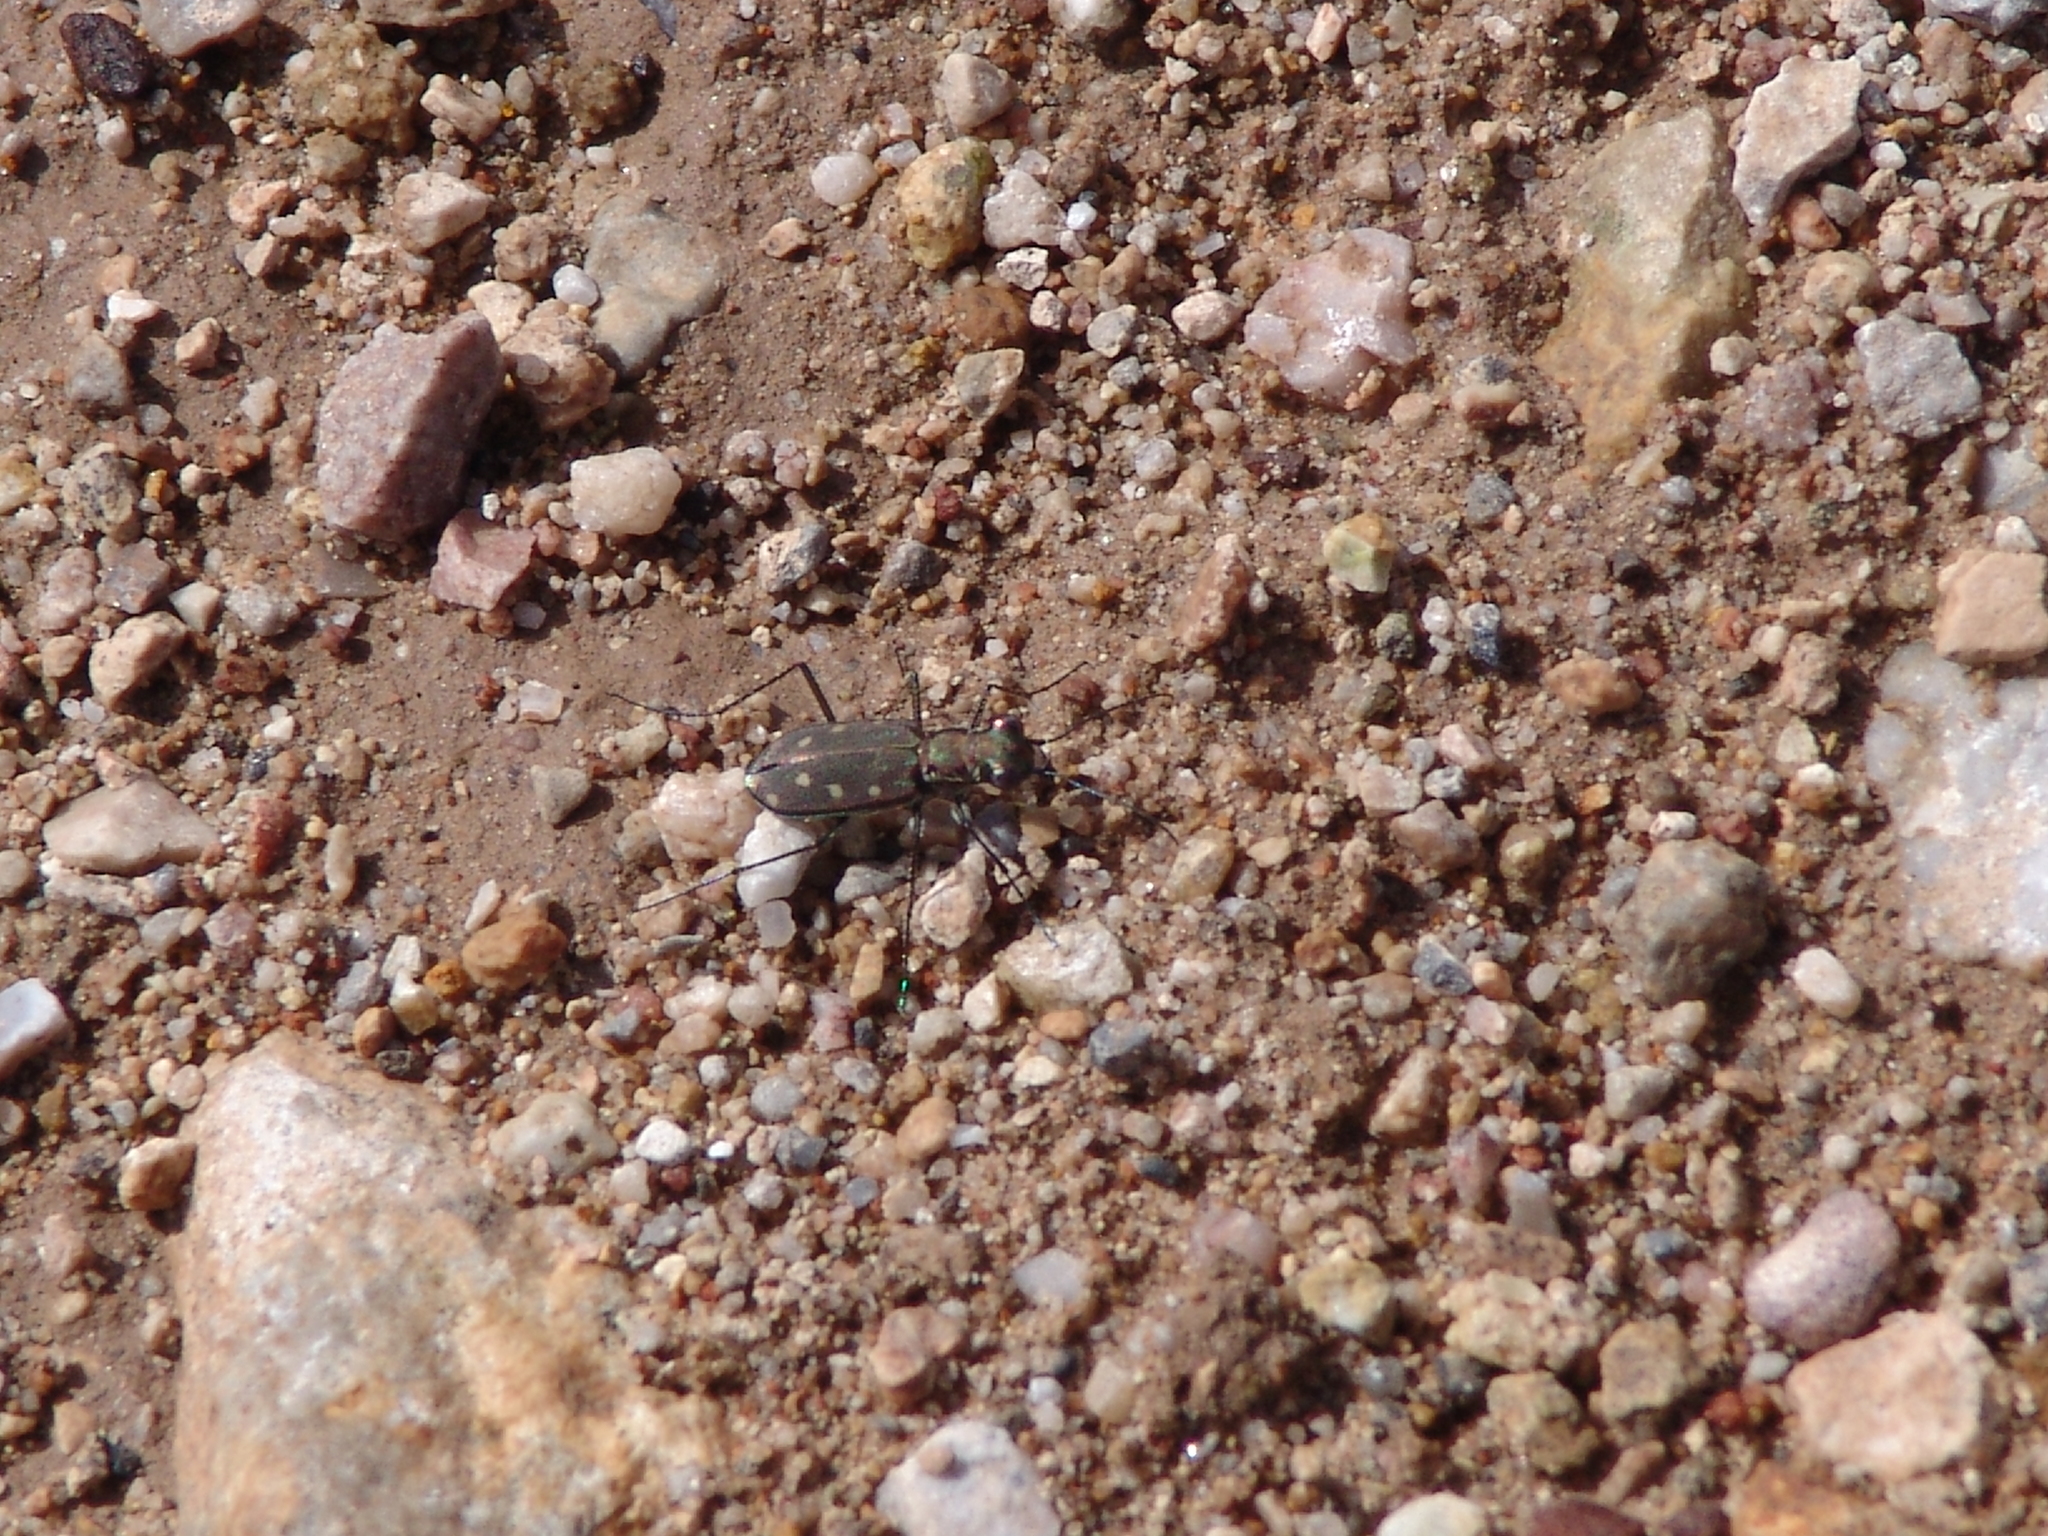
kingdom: Animalia
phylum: Arthropoda
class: Insecta
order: Coleoptera
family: Carabidae
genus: Cicindela
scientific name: Cicindela ocellata
